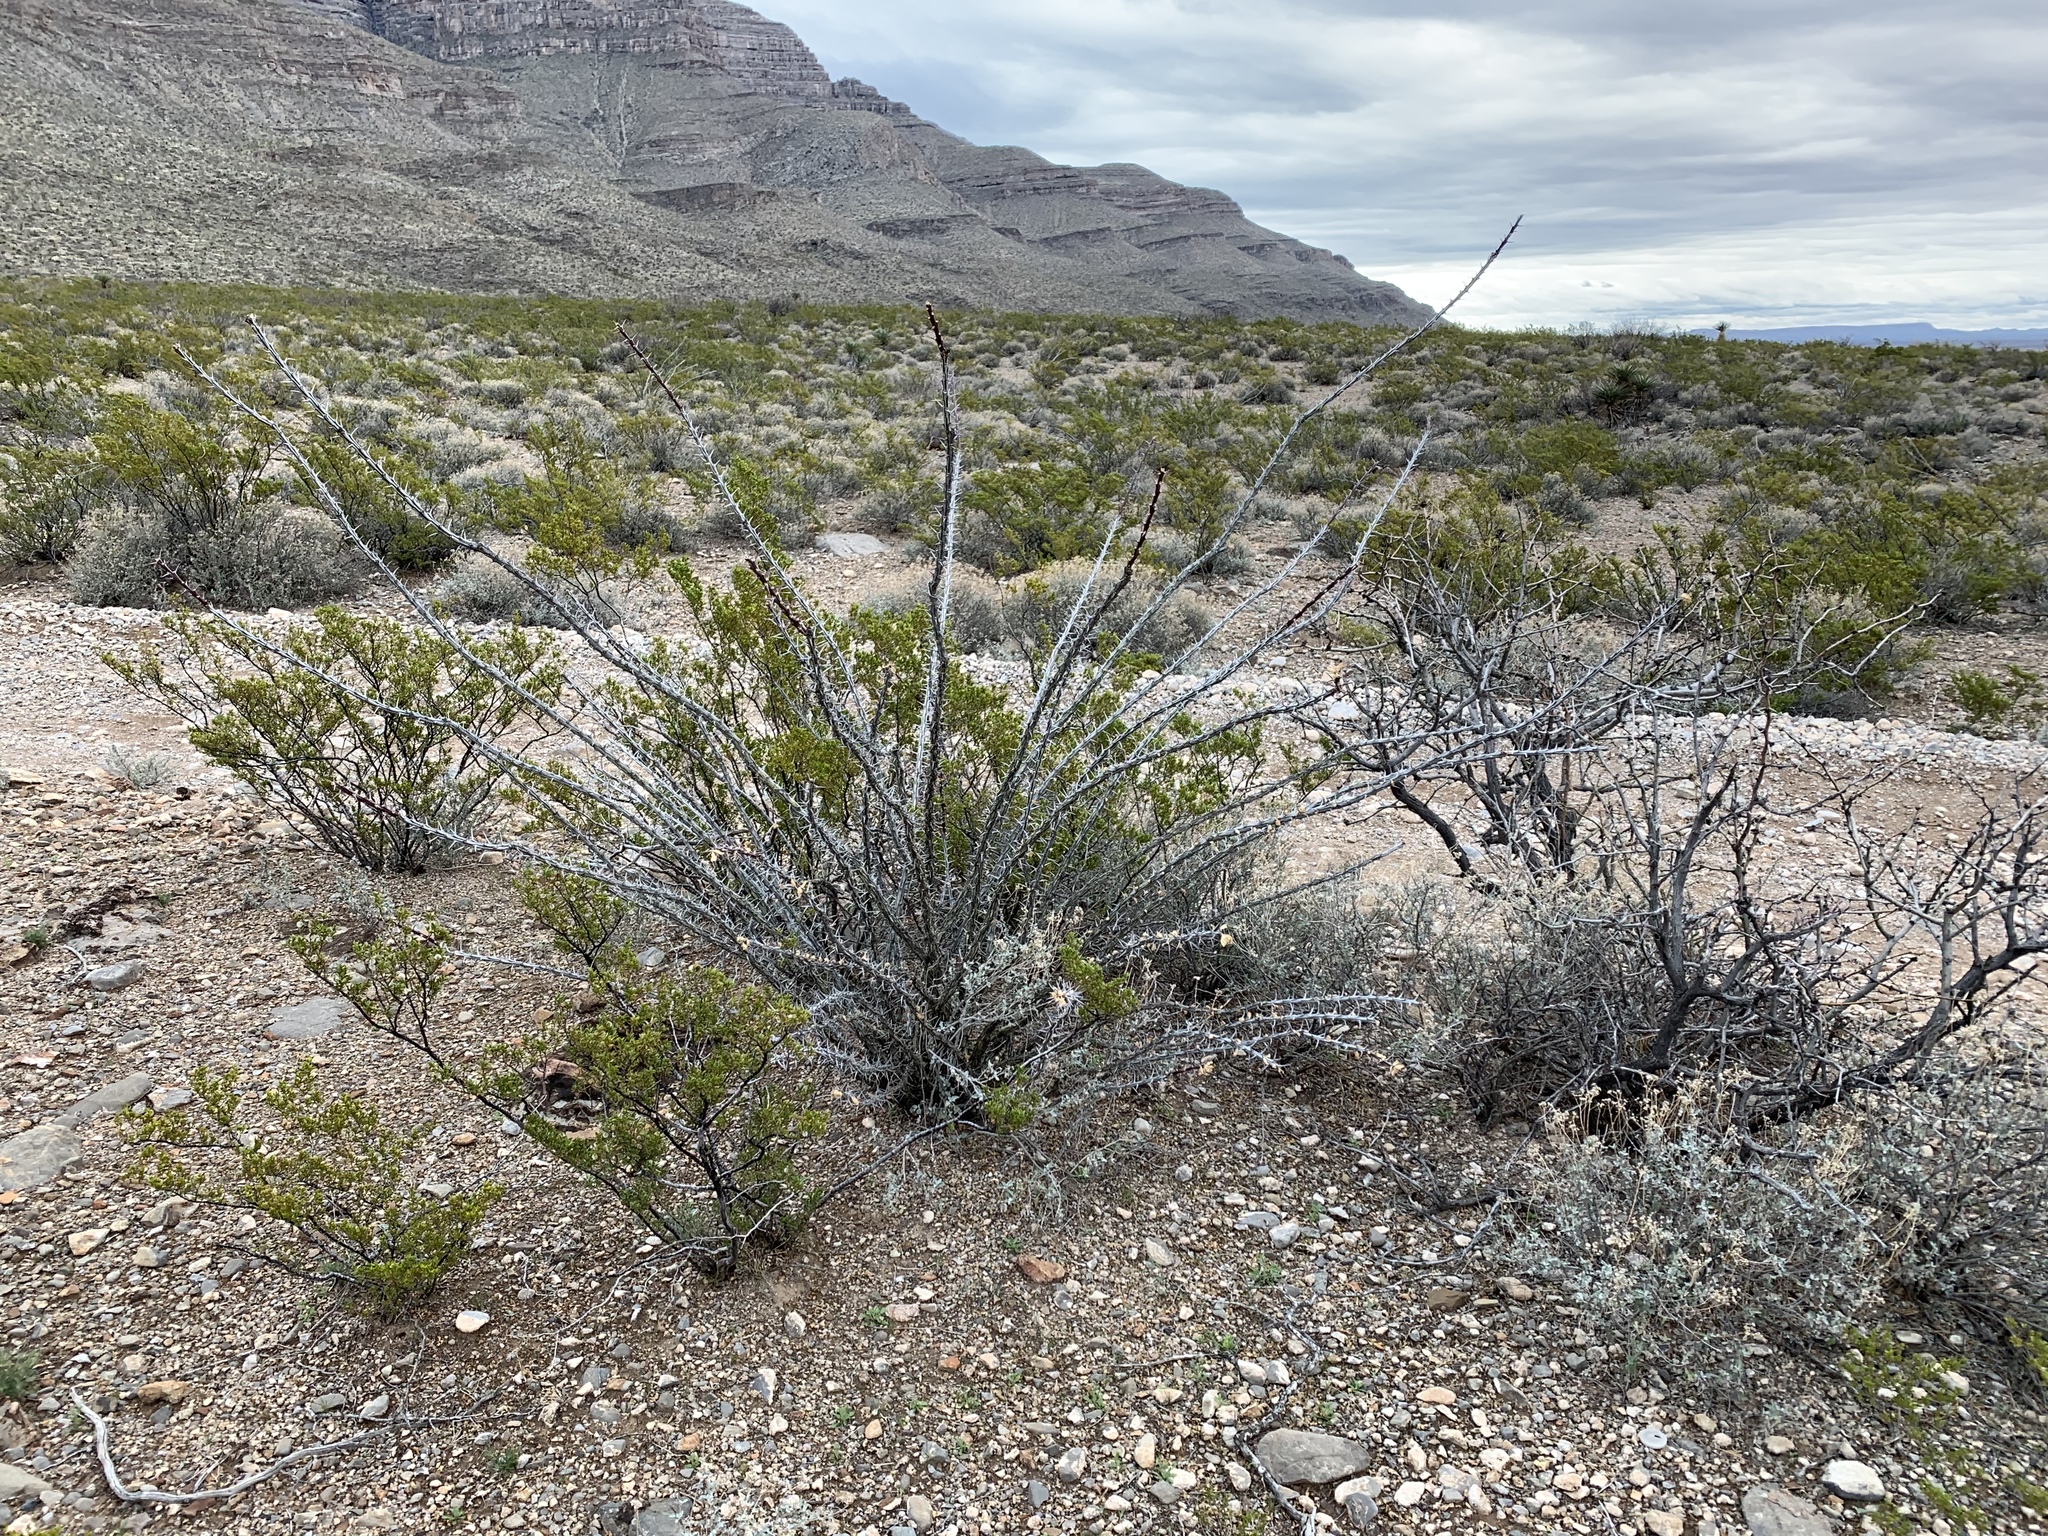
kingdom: Plantae
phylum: Tracheophyta
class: Magnoliopsida
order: Ericales
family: Fouquieriaceae
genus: Fouquieria
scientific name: Fouquieria splendens
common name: Vine-cactus
